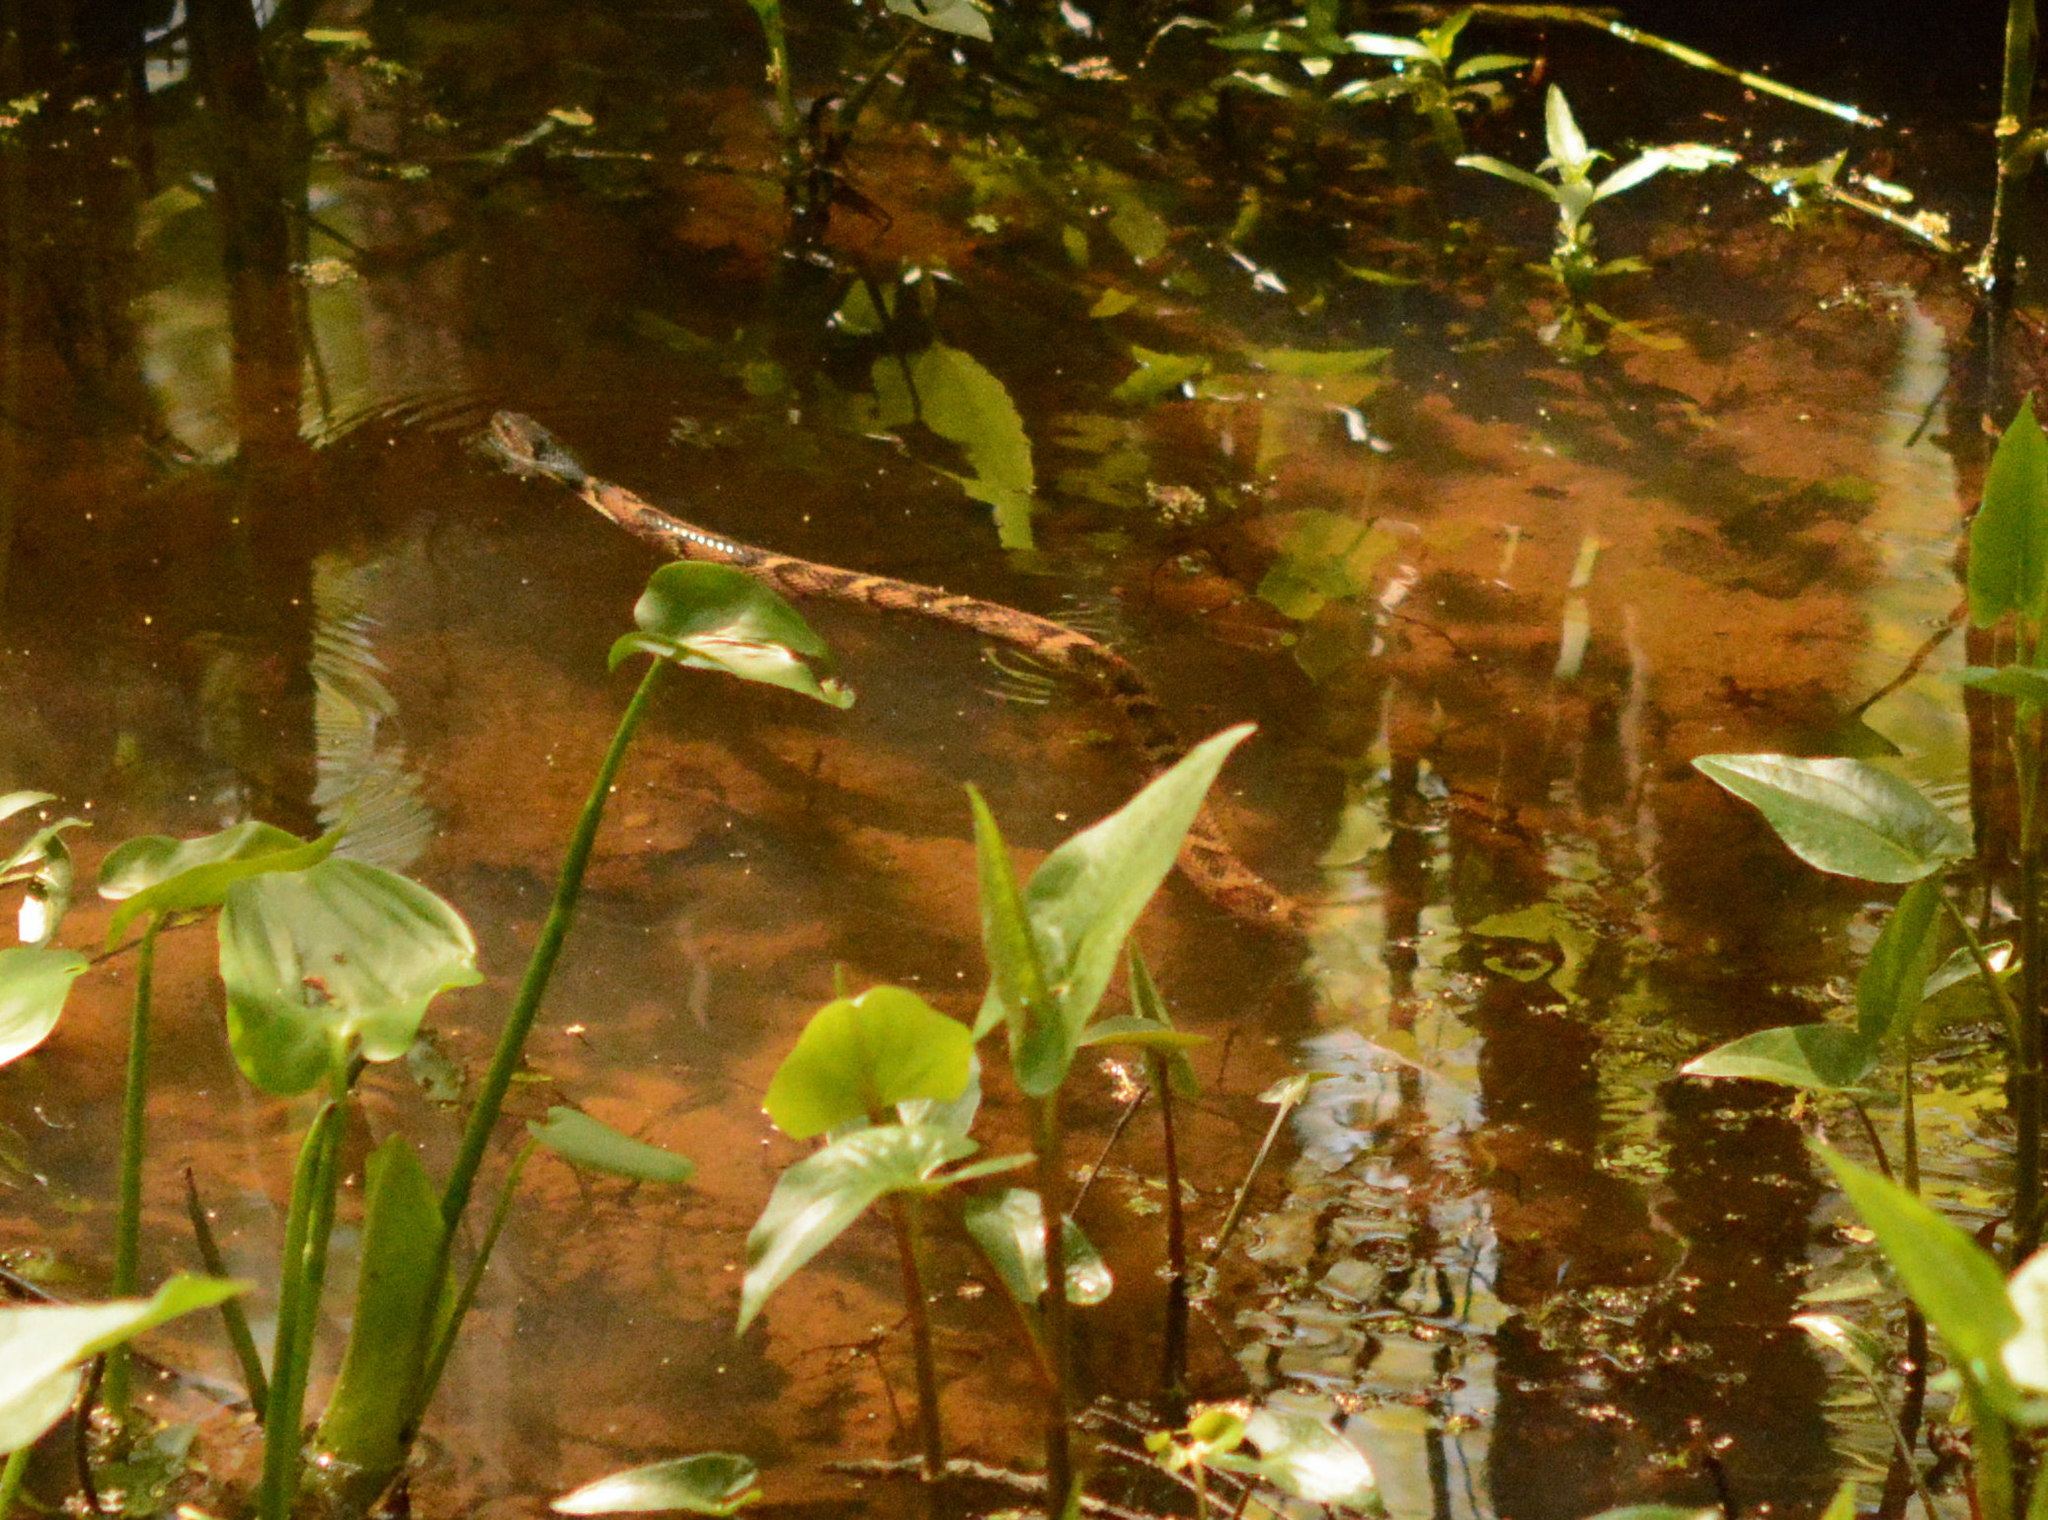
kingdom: Animalia
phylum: Chordata
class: Squamata
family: Colubridae
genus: Nerodia
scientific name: Nerodia fasciata
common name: Southern water snake
